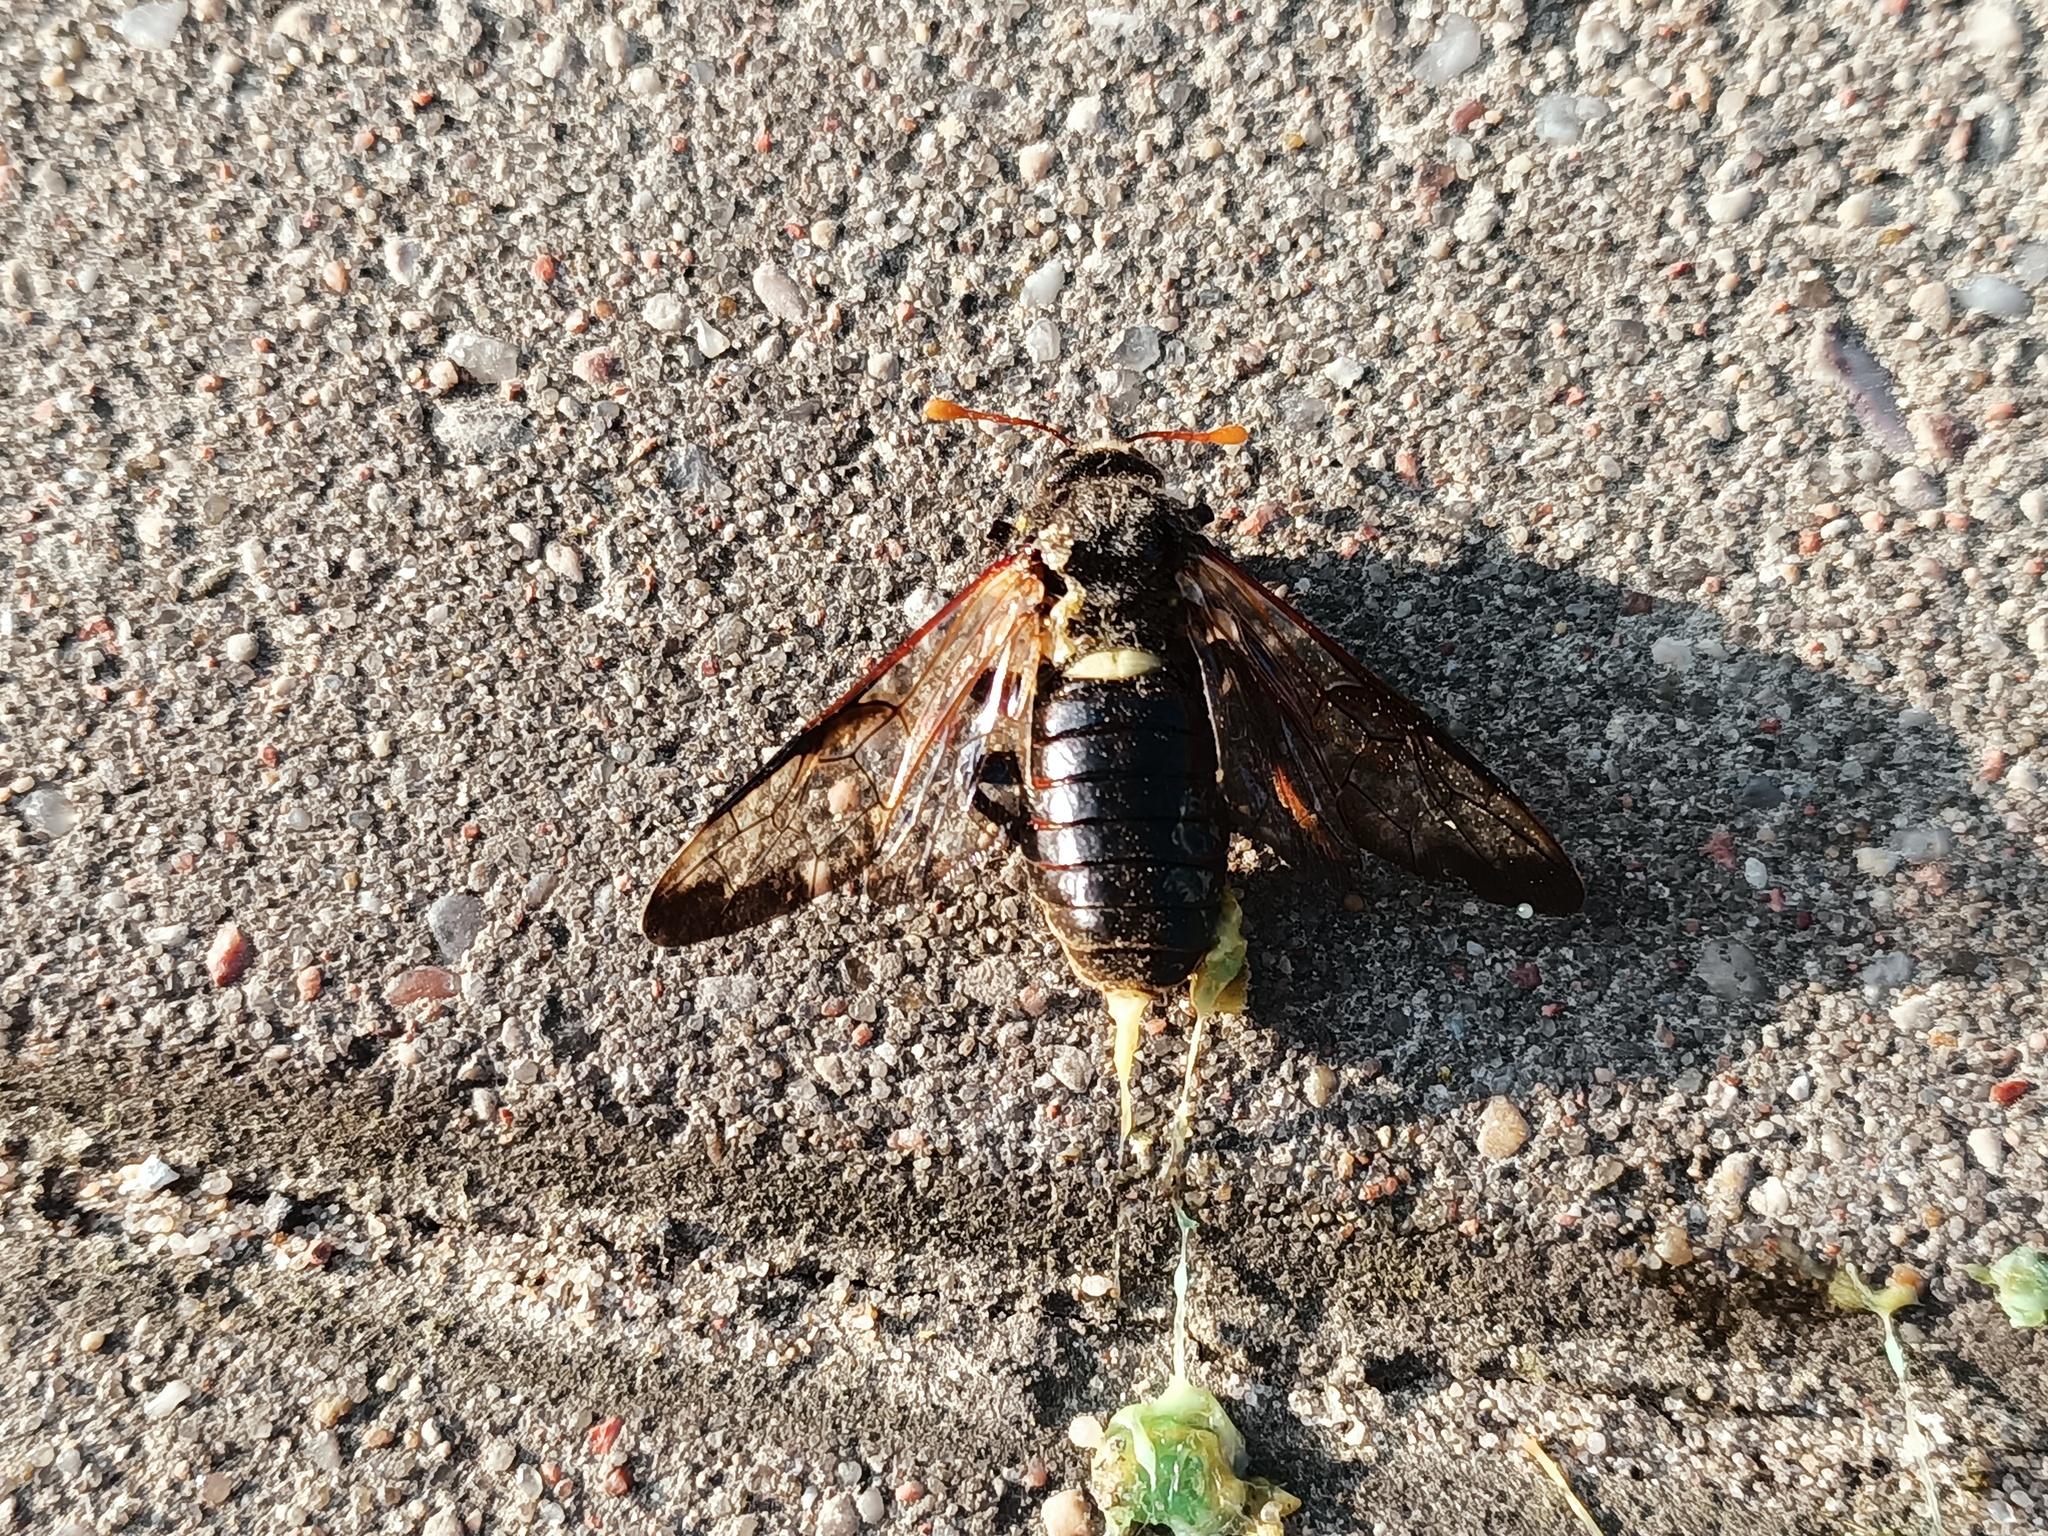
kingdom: Animalia
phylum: Arthropoda
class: Insecta
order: Hymenoptera
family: Cimbicidae
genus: Cimbex
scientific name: Cimbex femoratus
